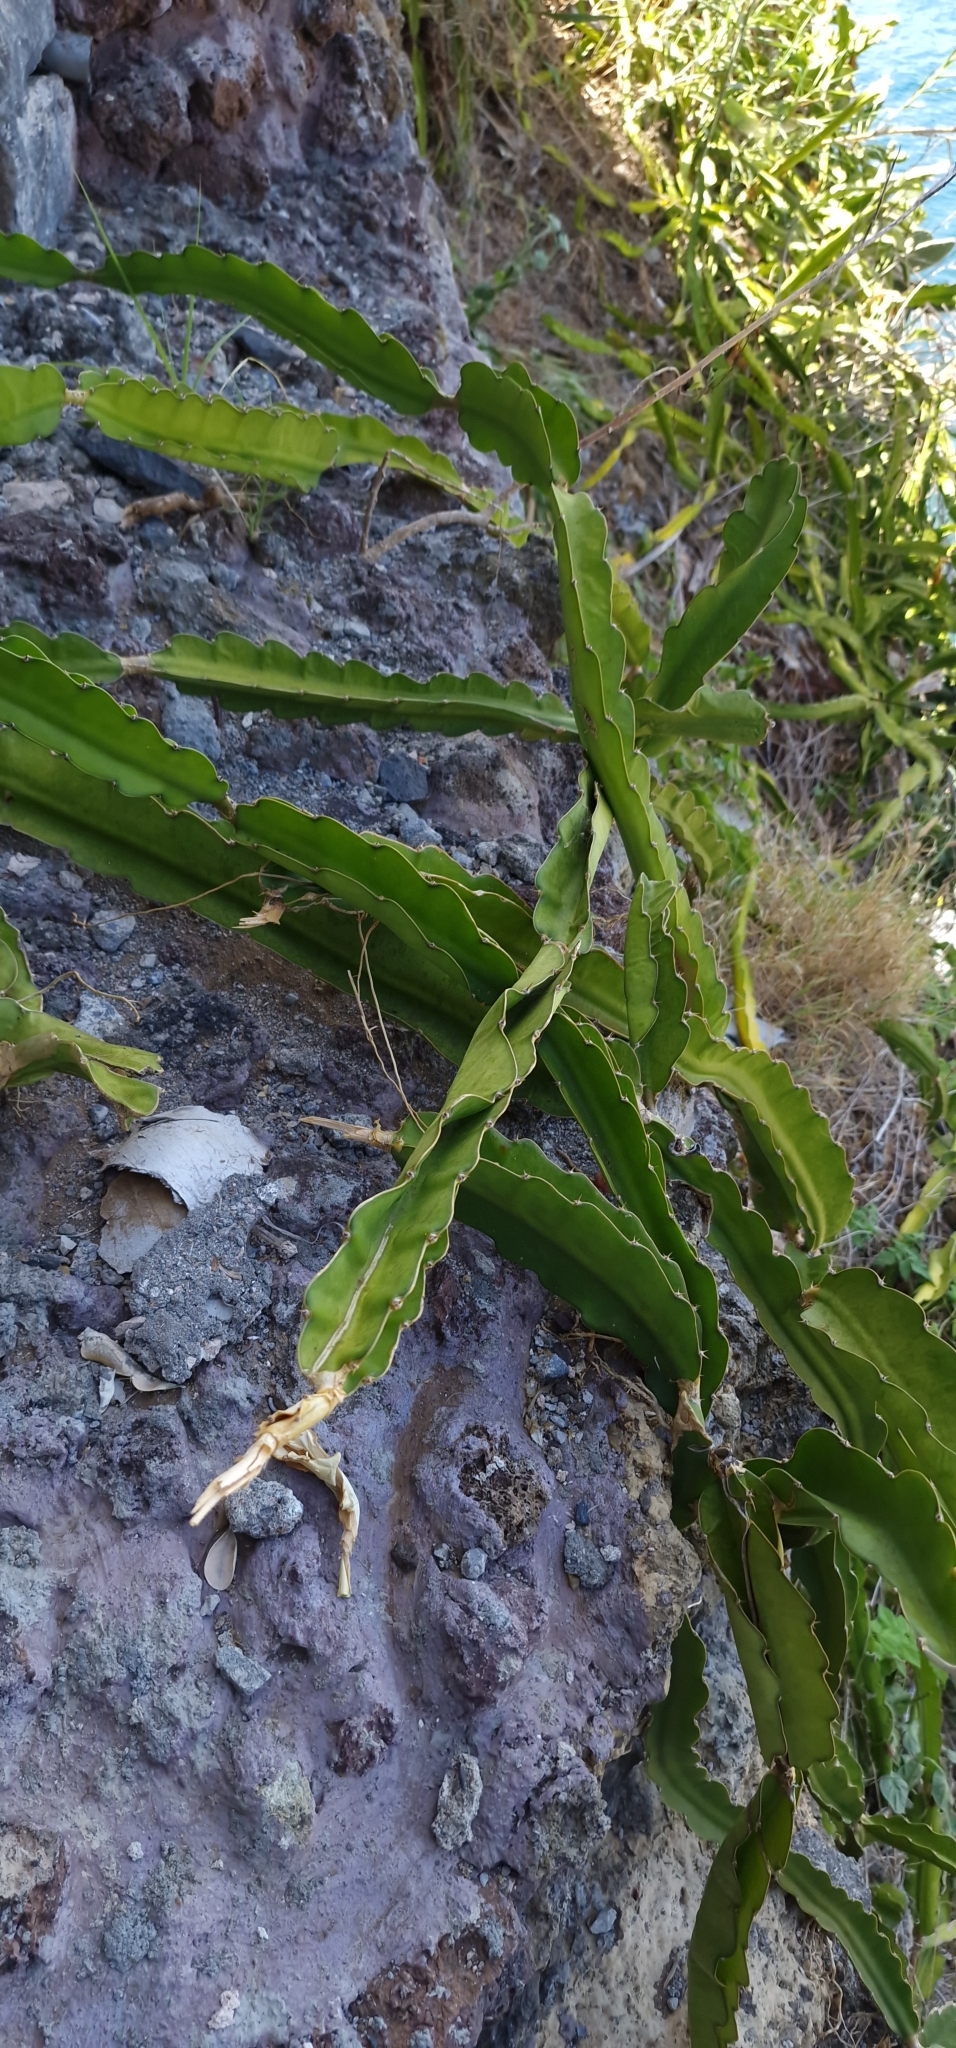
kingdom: Plantae
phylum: Tracheophyta
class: Magnoliopsida
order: Caryophyllales
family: Cactaceae
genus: Selenicereus
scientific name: Selenicereus undatus
